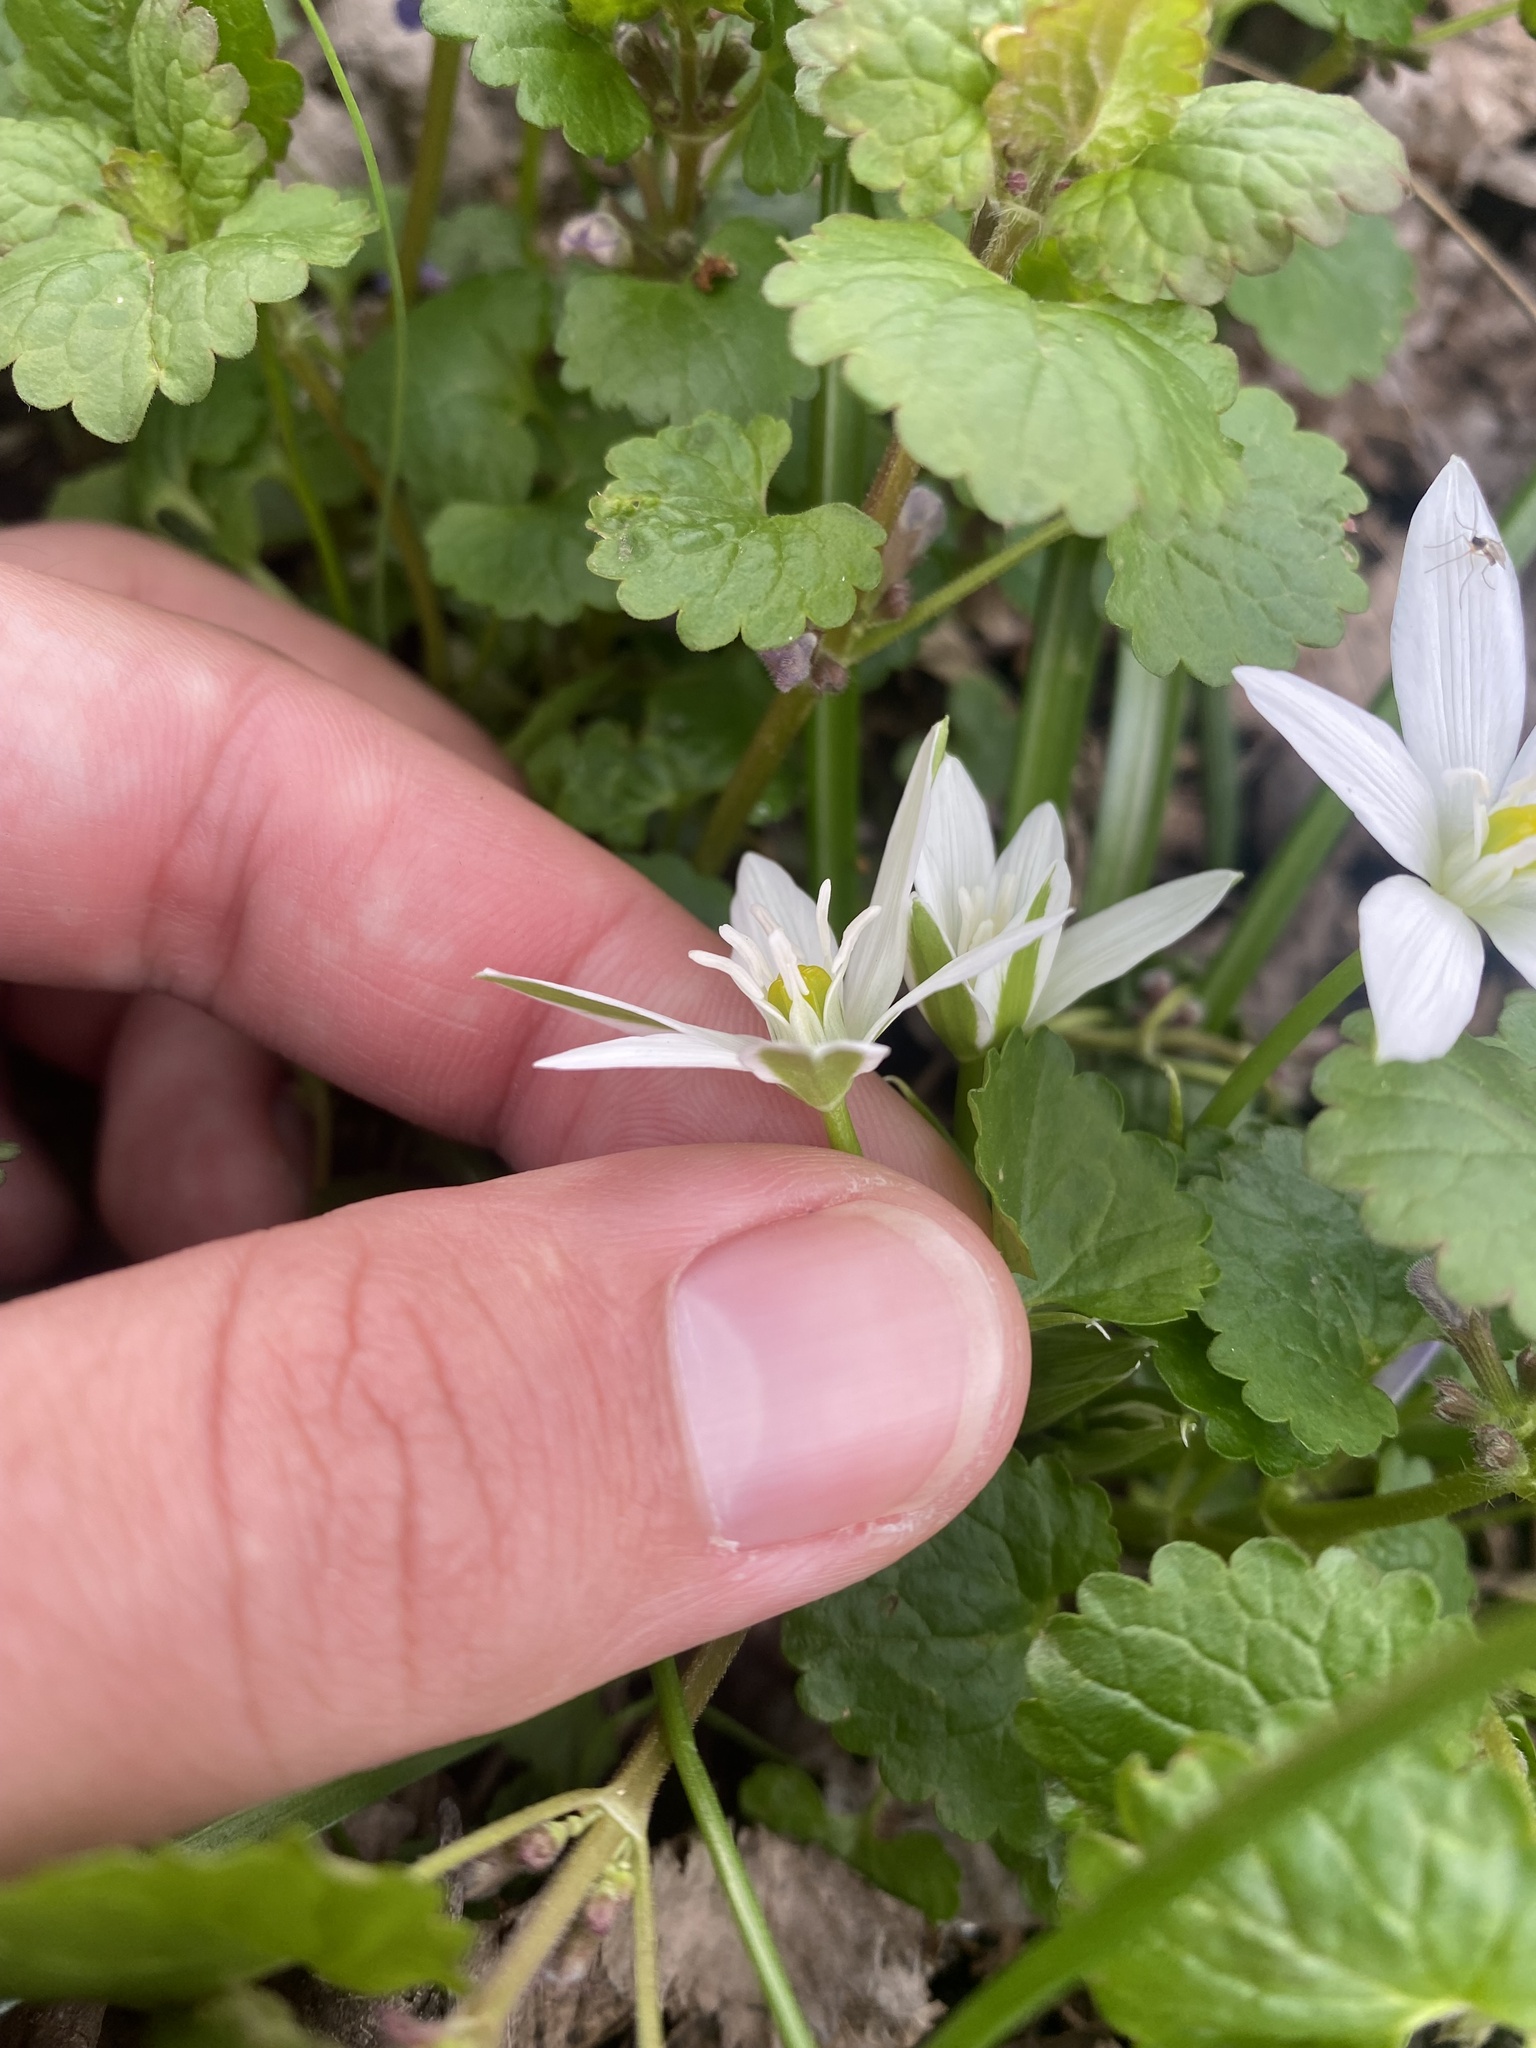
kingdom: Plantae
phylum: Tracheophyta
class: Liliopsida
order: Asparagales
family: Asparagaceae
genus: Ornithogalum
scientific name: Ornithogalum woronowii
